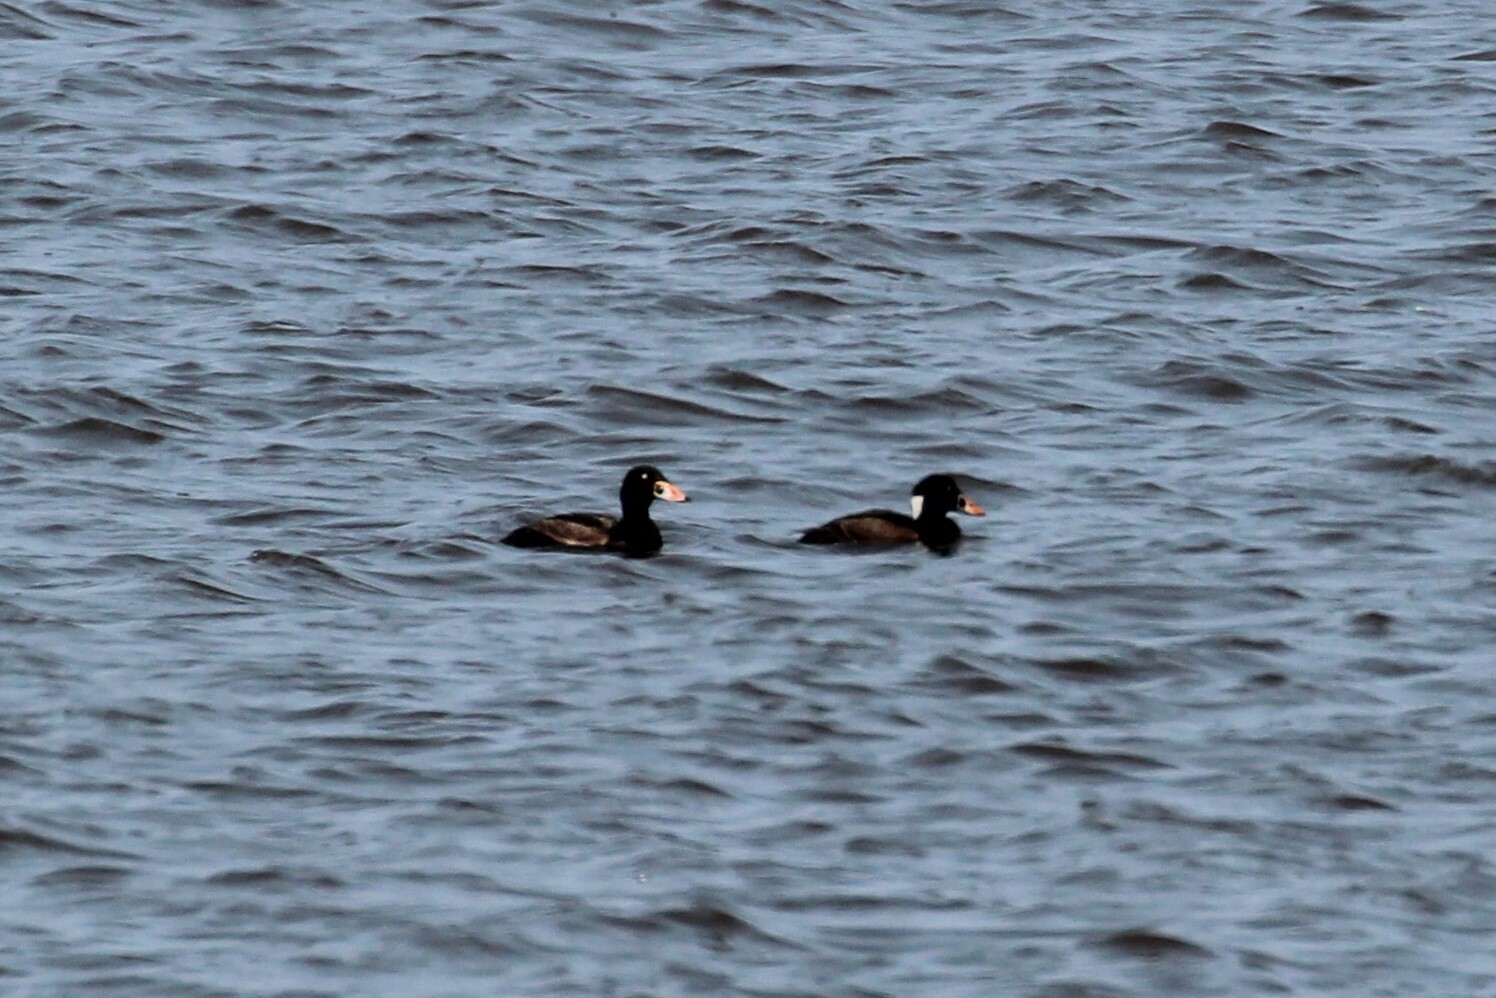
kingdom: Animalia
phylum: Chordata
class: Aves
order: Anseriformes
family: Anatidae
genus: Melanitta
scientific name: Melanitta perspicillata
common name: Surf scoter
